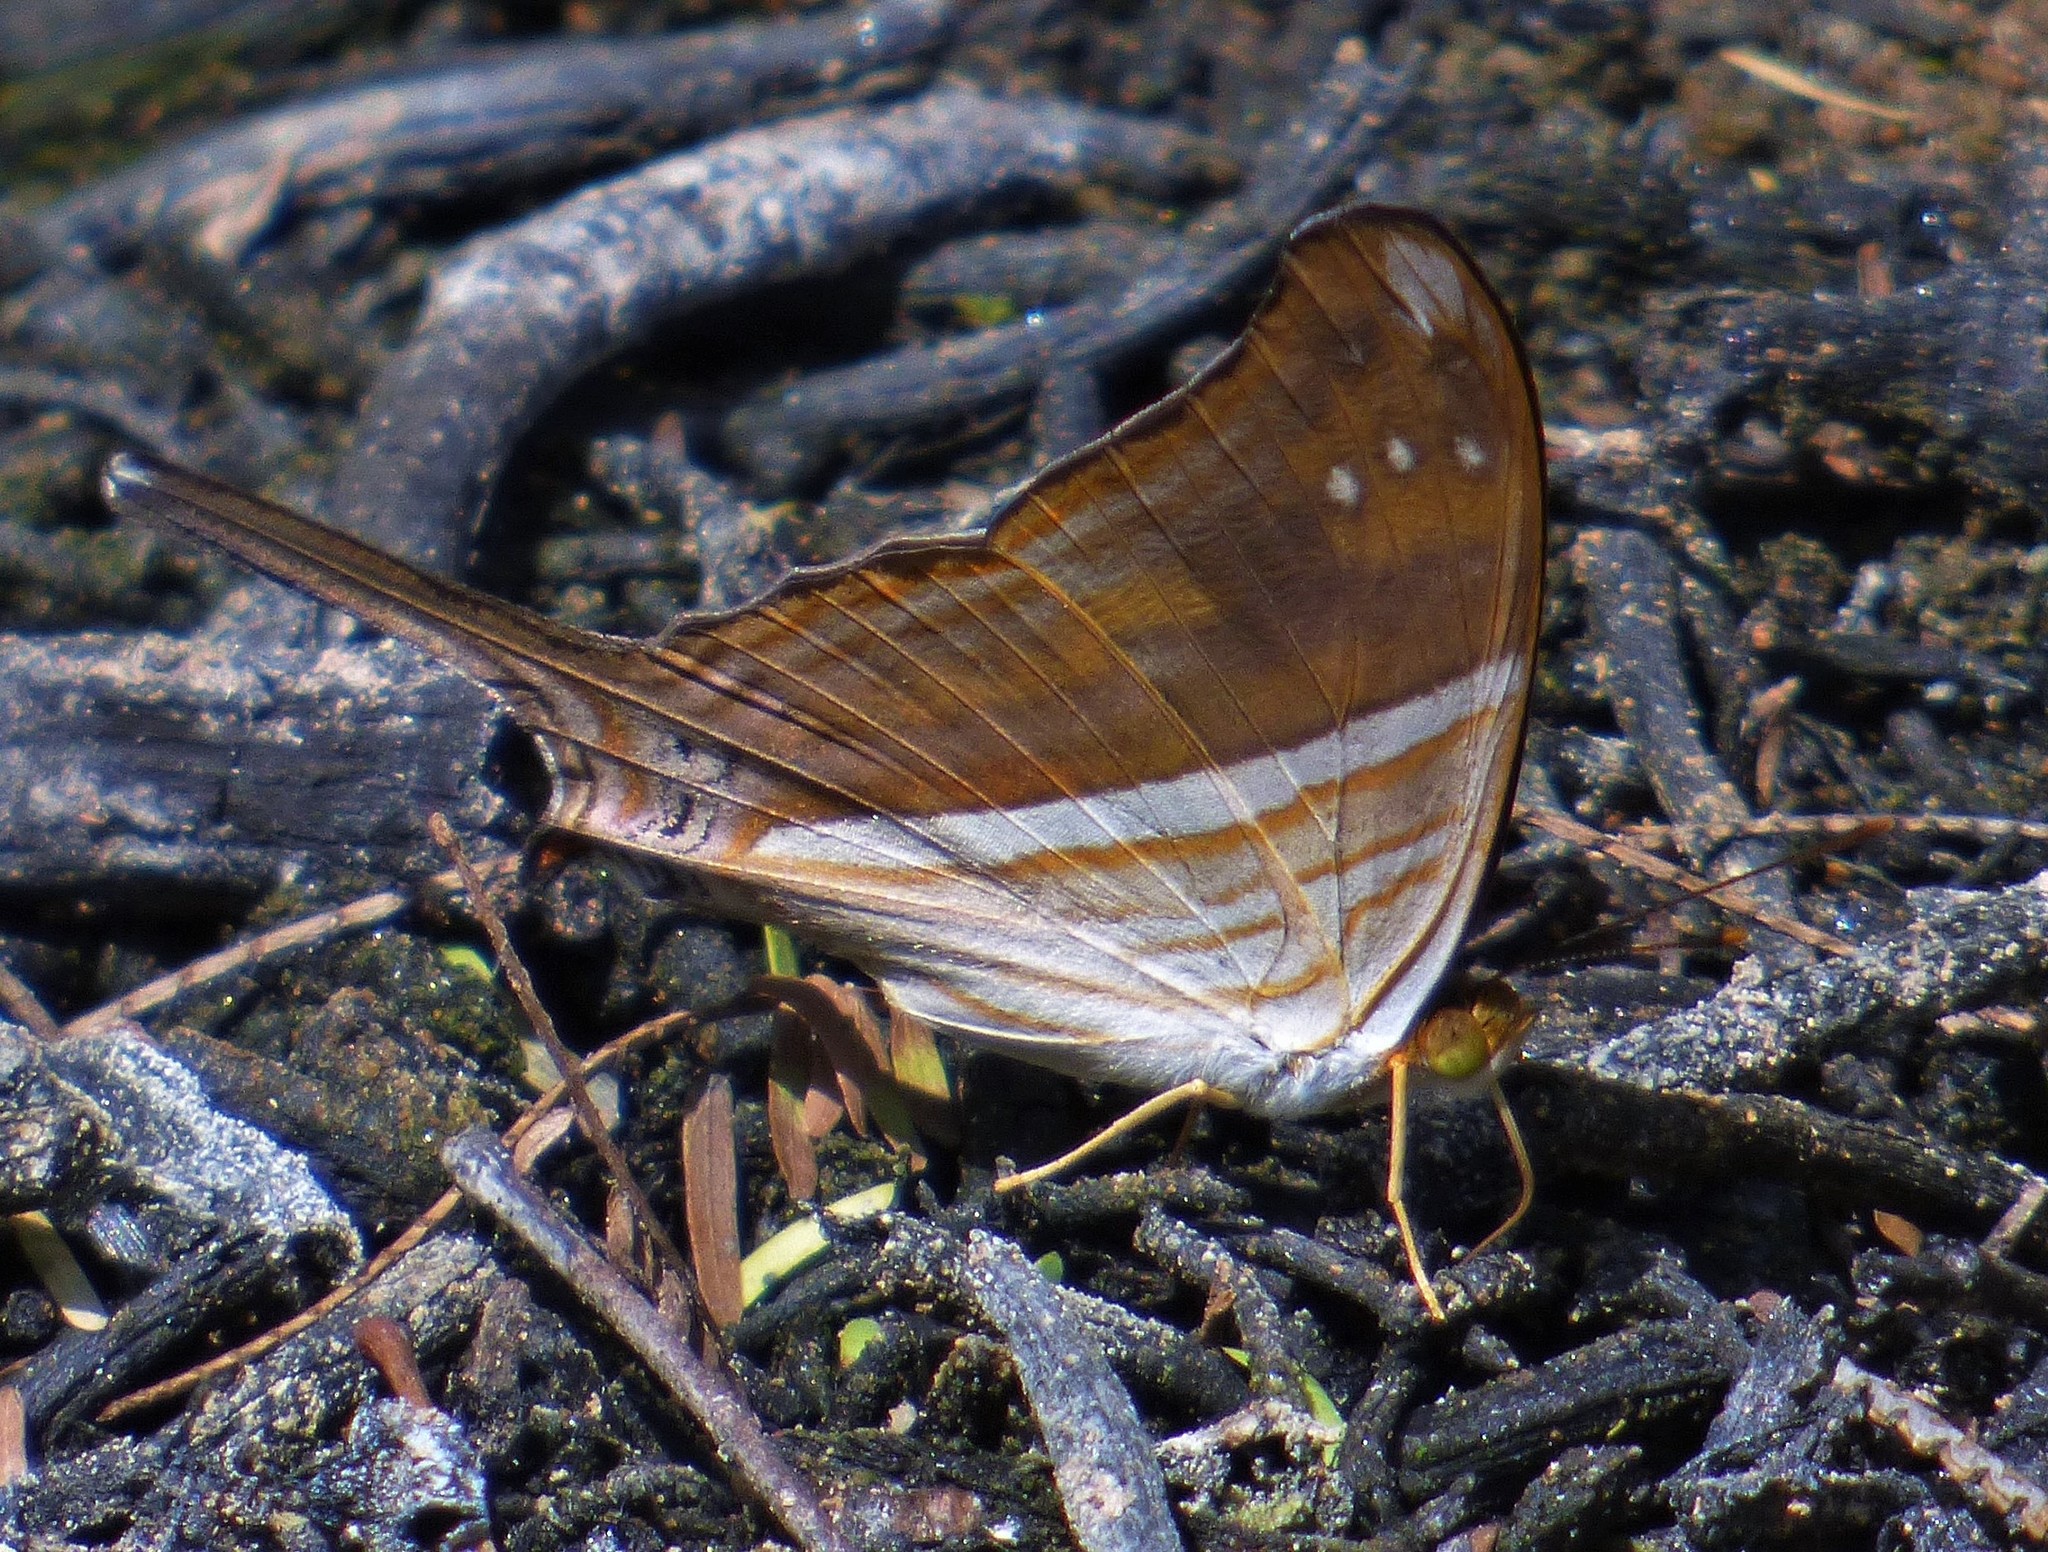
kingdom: Animalia
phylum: Arthropoda
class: Insecta
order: Lepidoptera
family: Nymphalidae
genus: Marpesia
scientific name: Marpesia chiron
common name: Many-banded daggerwing
